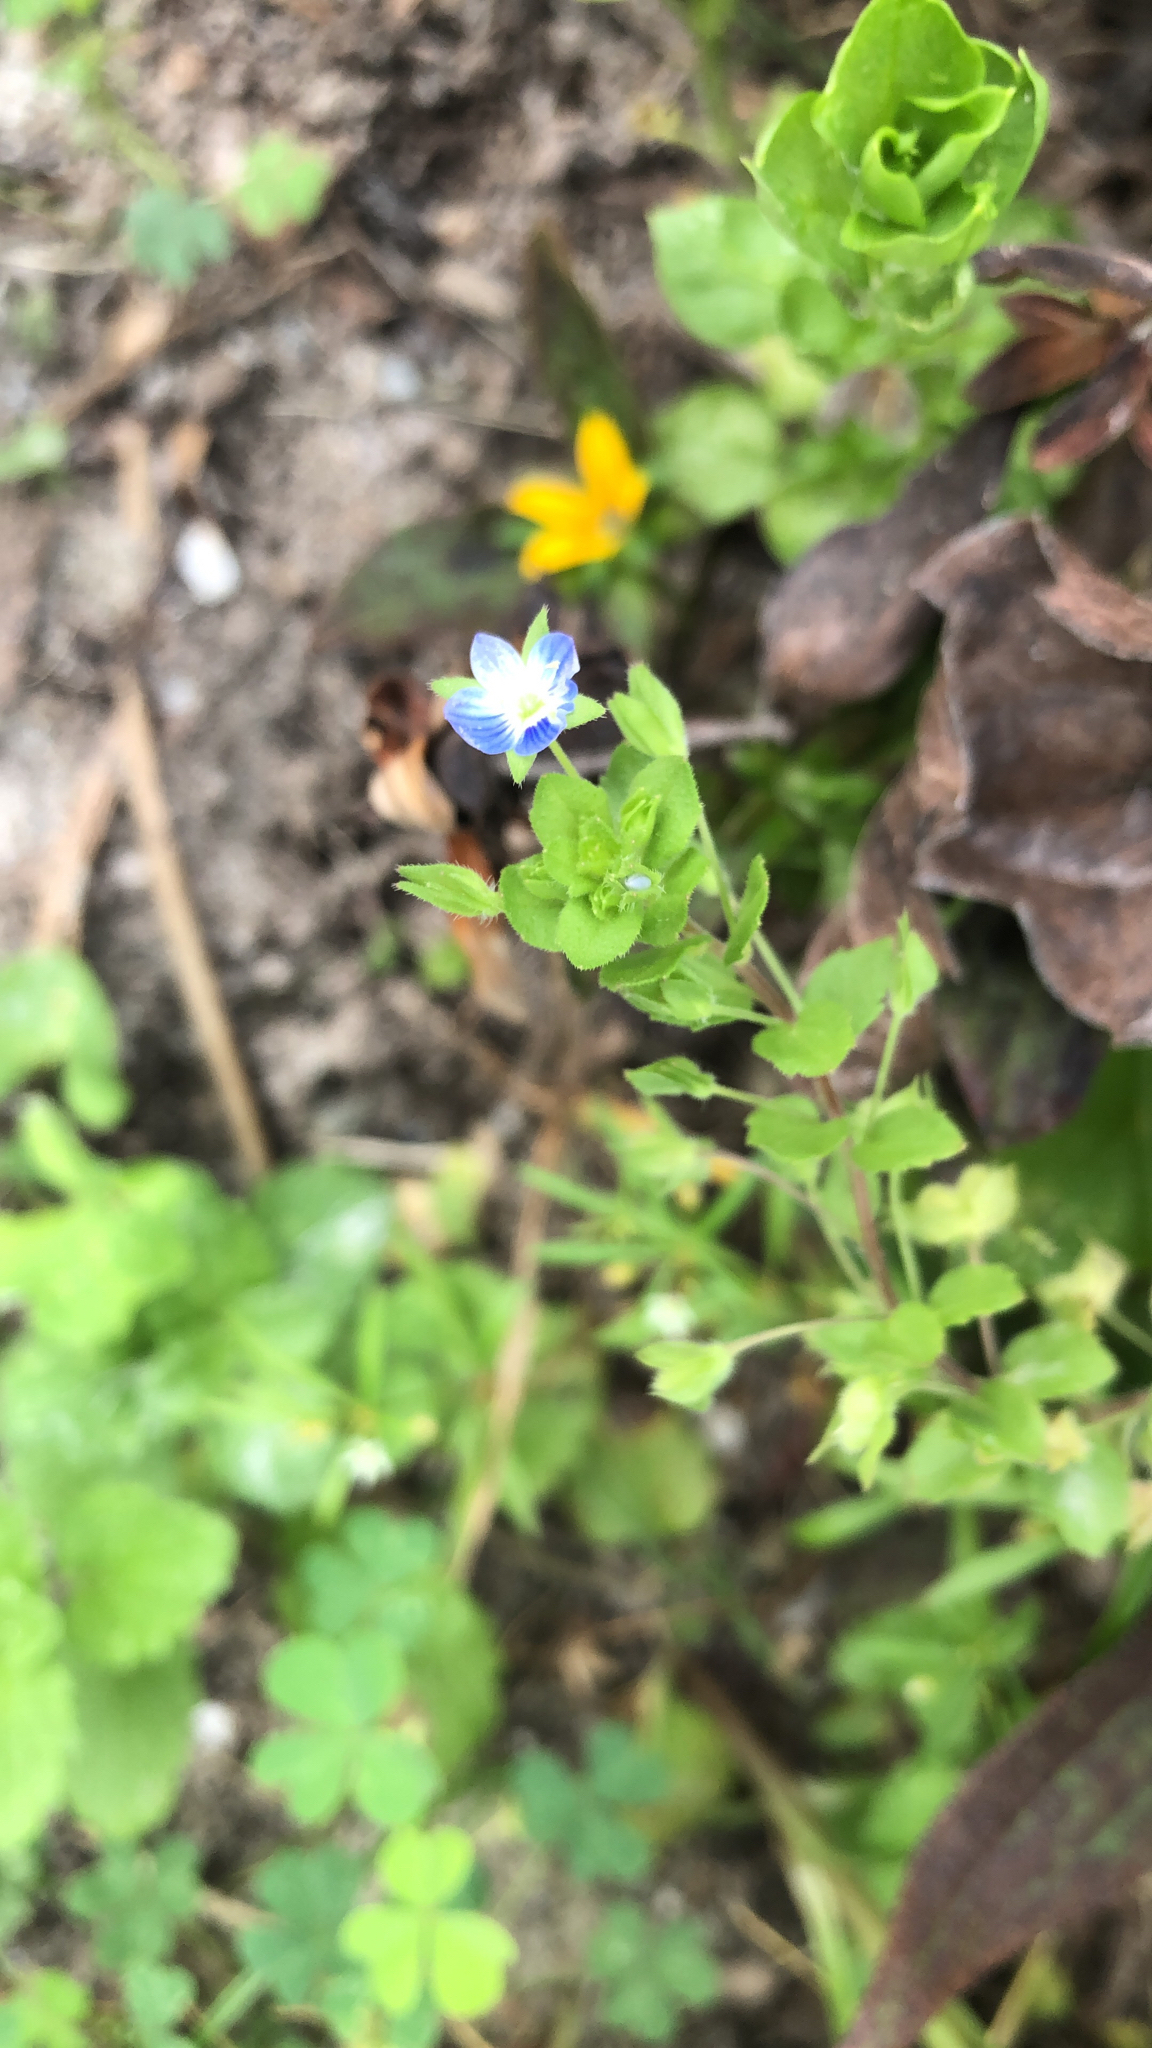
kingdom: Plantae
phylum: Tracheophyta
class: Magnoliopsida
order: Lamiales
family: Plantaginaceae
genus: Veronica
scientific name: Veronica persica
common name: Common field-speedwell
